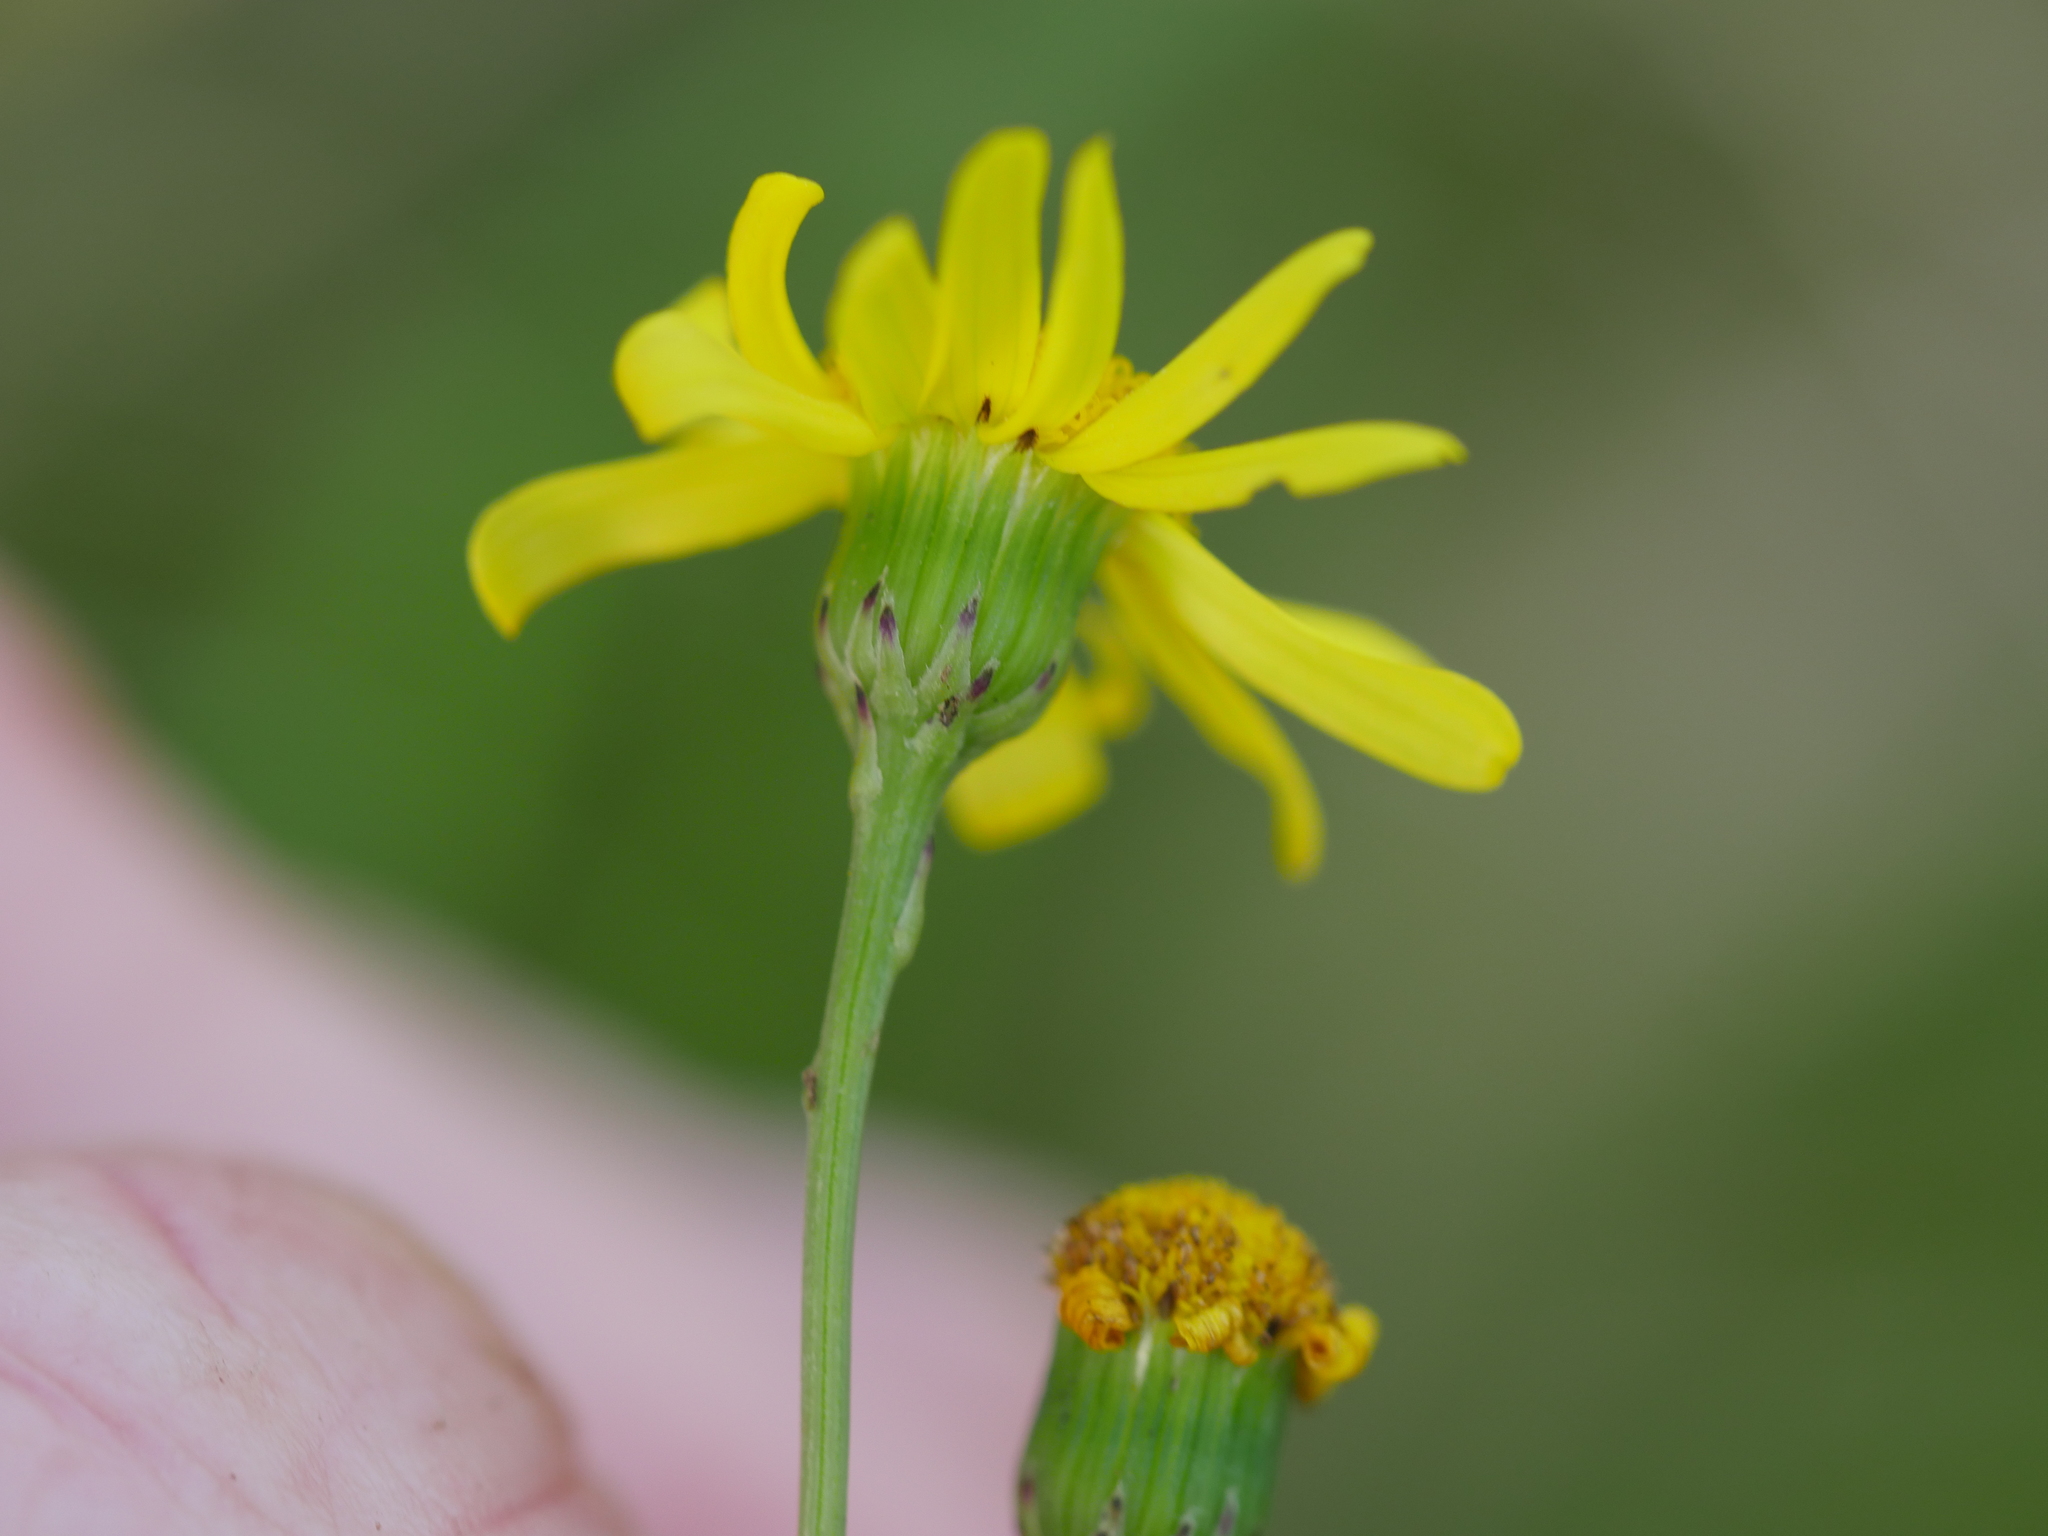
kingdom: Plantae
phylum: Tracheophyta
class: Magnoliopsida
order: Asterales
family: Asteraceae
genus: Senecio
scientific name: Senecio skirrhodon
